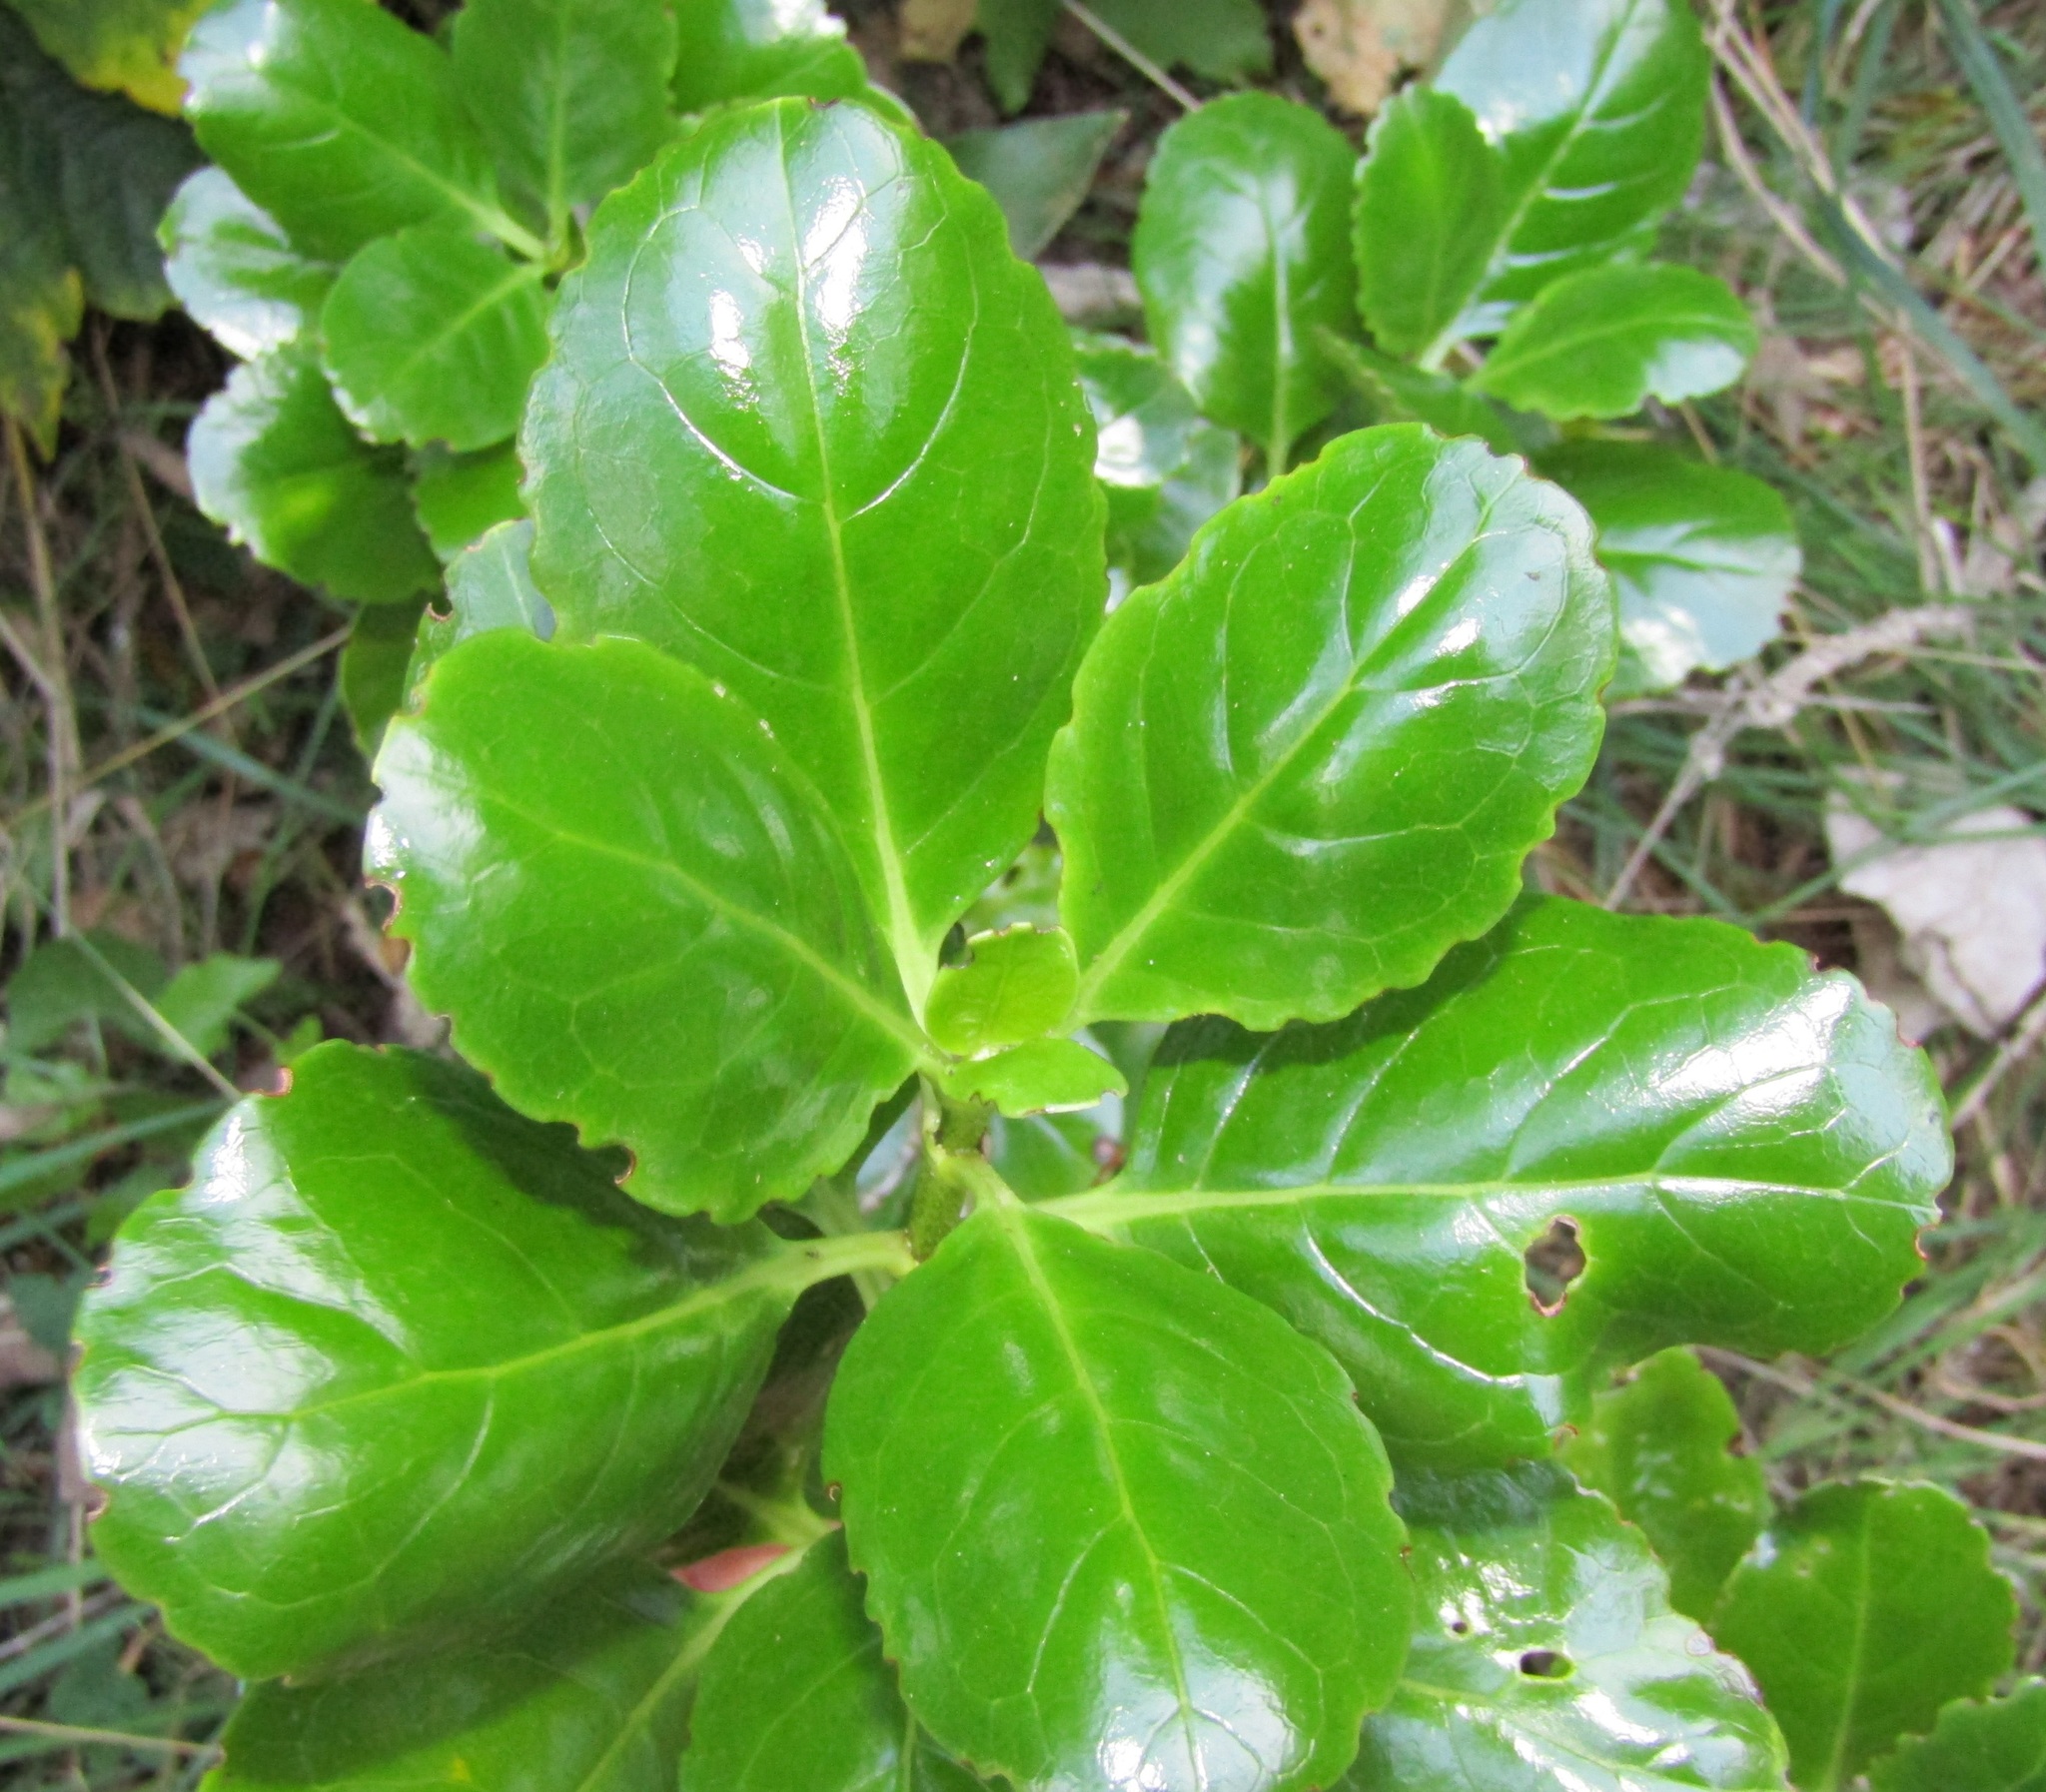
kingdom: Plantae
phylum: Tracheophyta
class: Magnoliopsida
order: Gentianales
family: Rubiaceae
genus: Coprosma
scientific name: Coprosma repens
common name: Tree bedstraw
